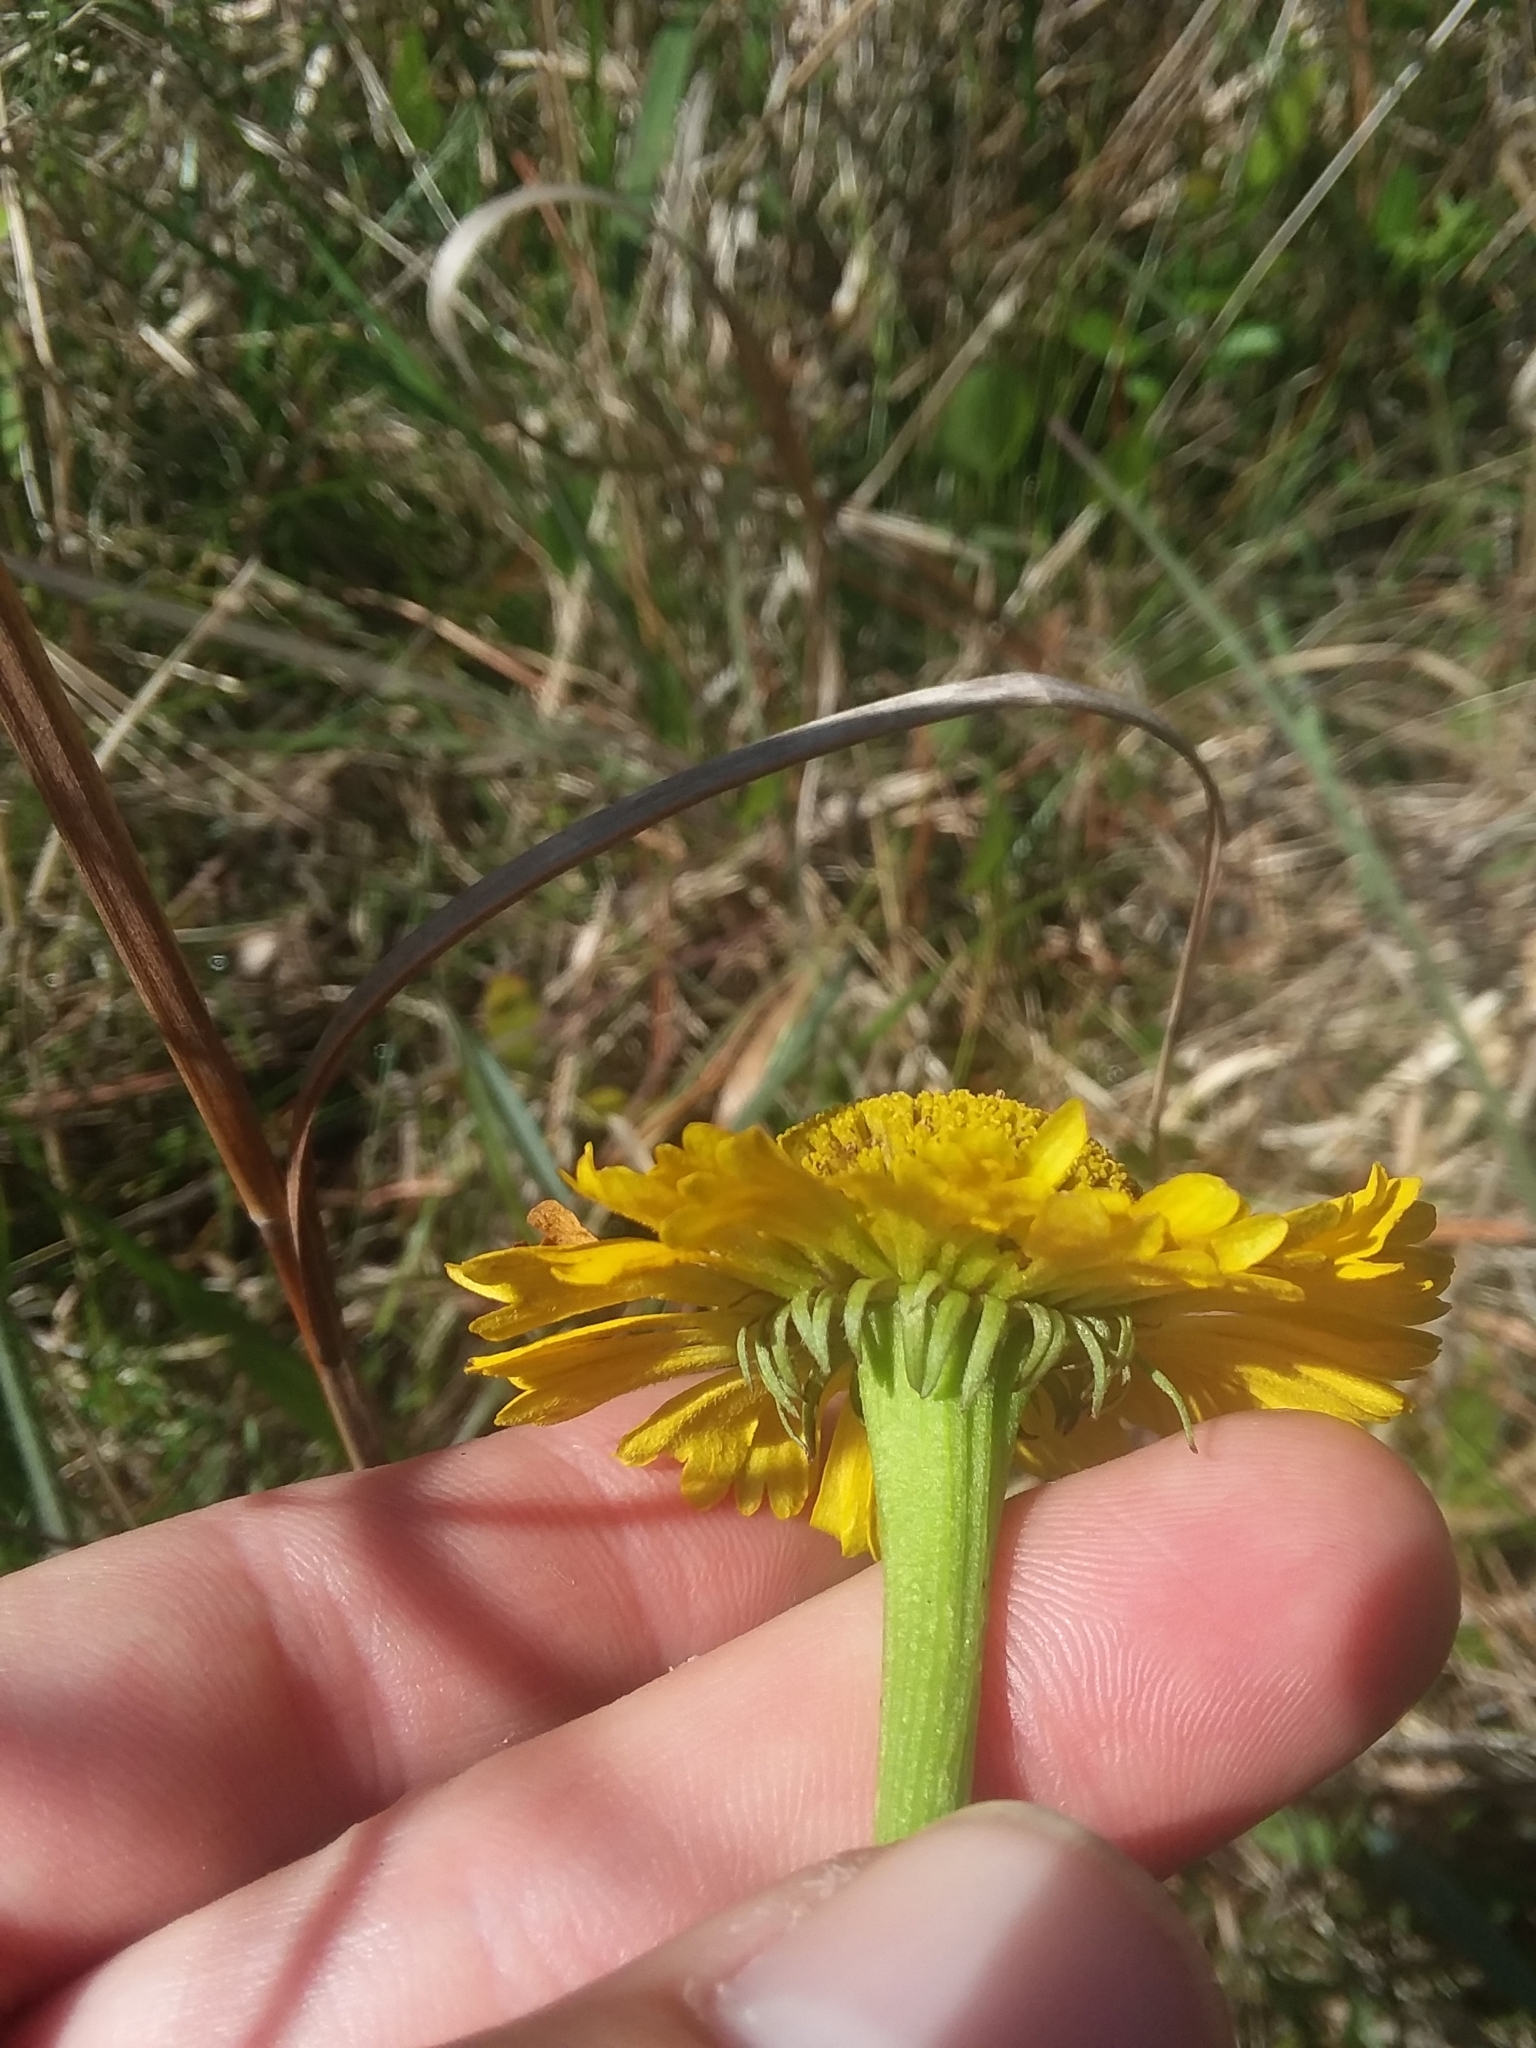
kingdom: Plantae
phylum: Tracheophyta
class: Magnoliopsida
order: Asterales
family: Asteraceae
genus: Helenium
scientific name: Helenium vernale
